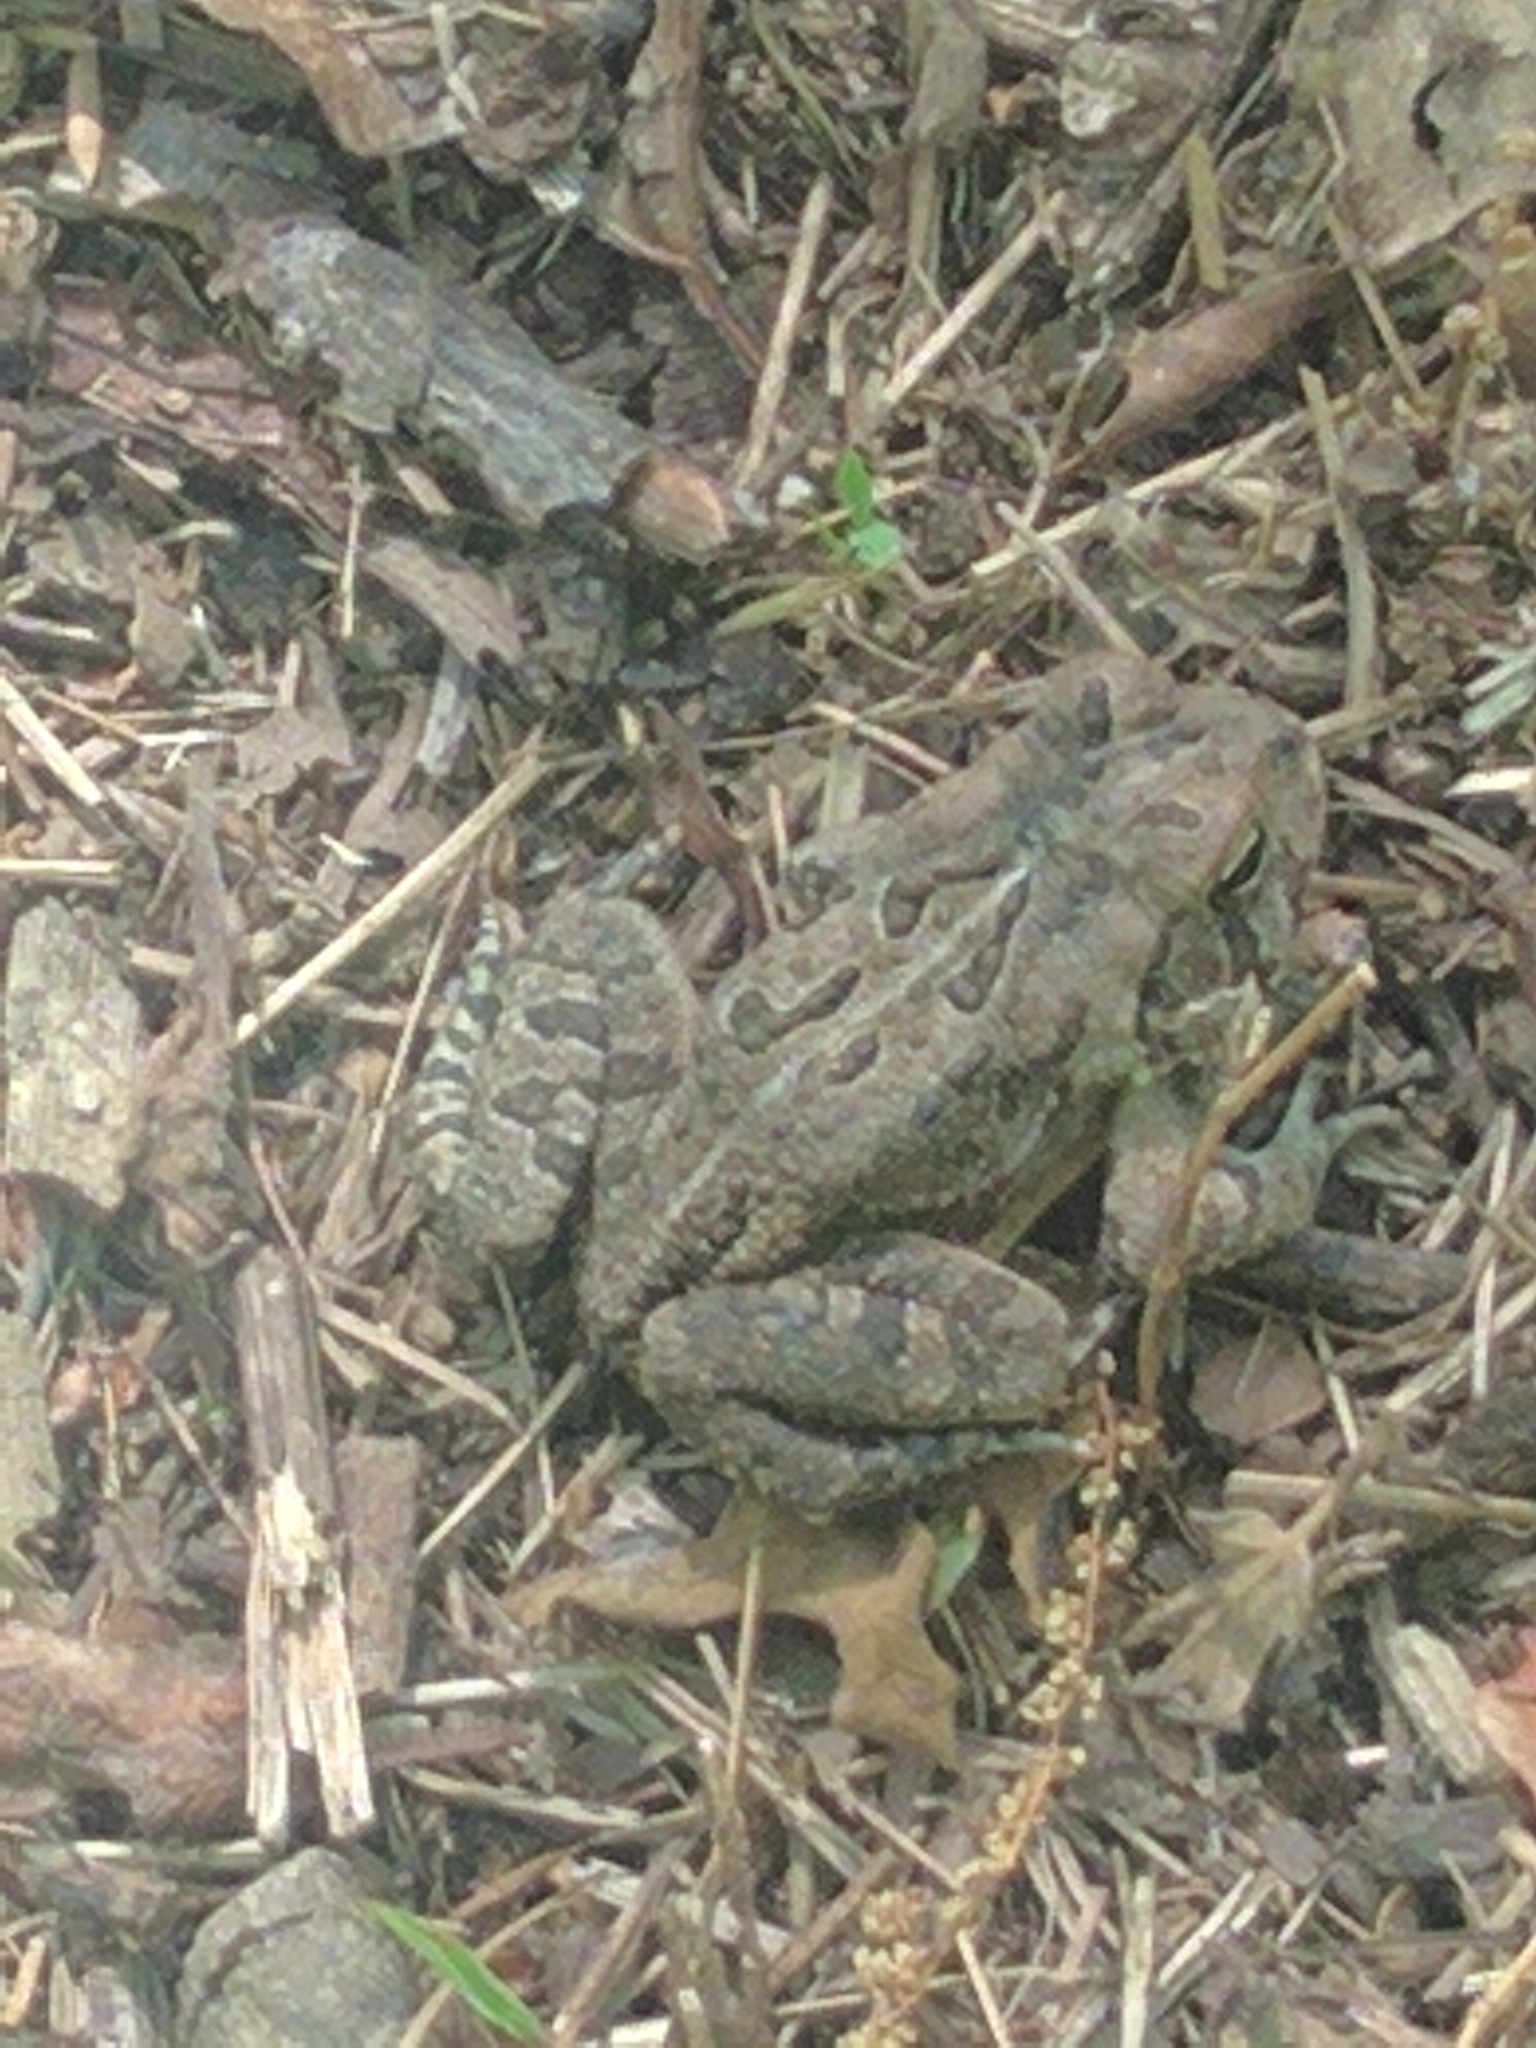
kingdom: Animalia
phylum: Chordata
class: Amphibia
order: Anura
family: Bufonidae
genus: Anaxyrus
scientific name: Anaxyrus fowleri
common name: Fowler's toad
